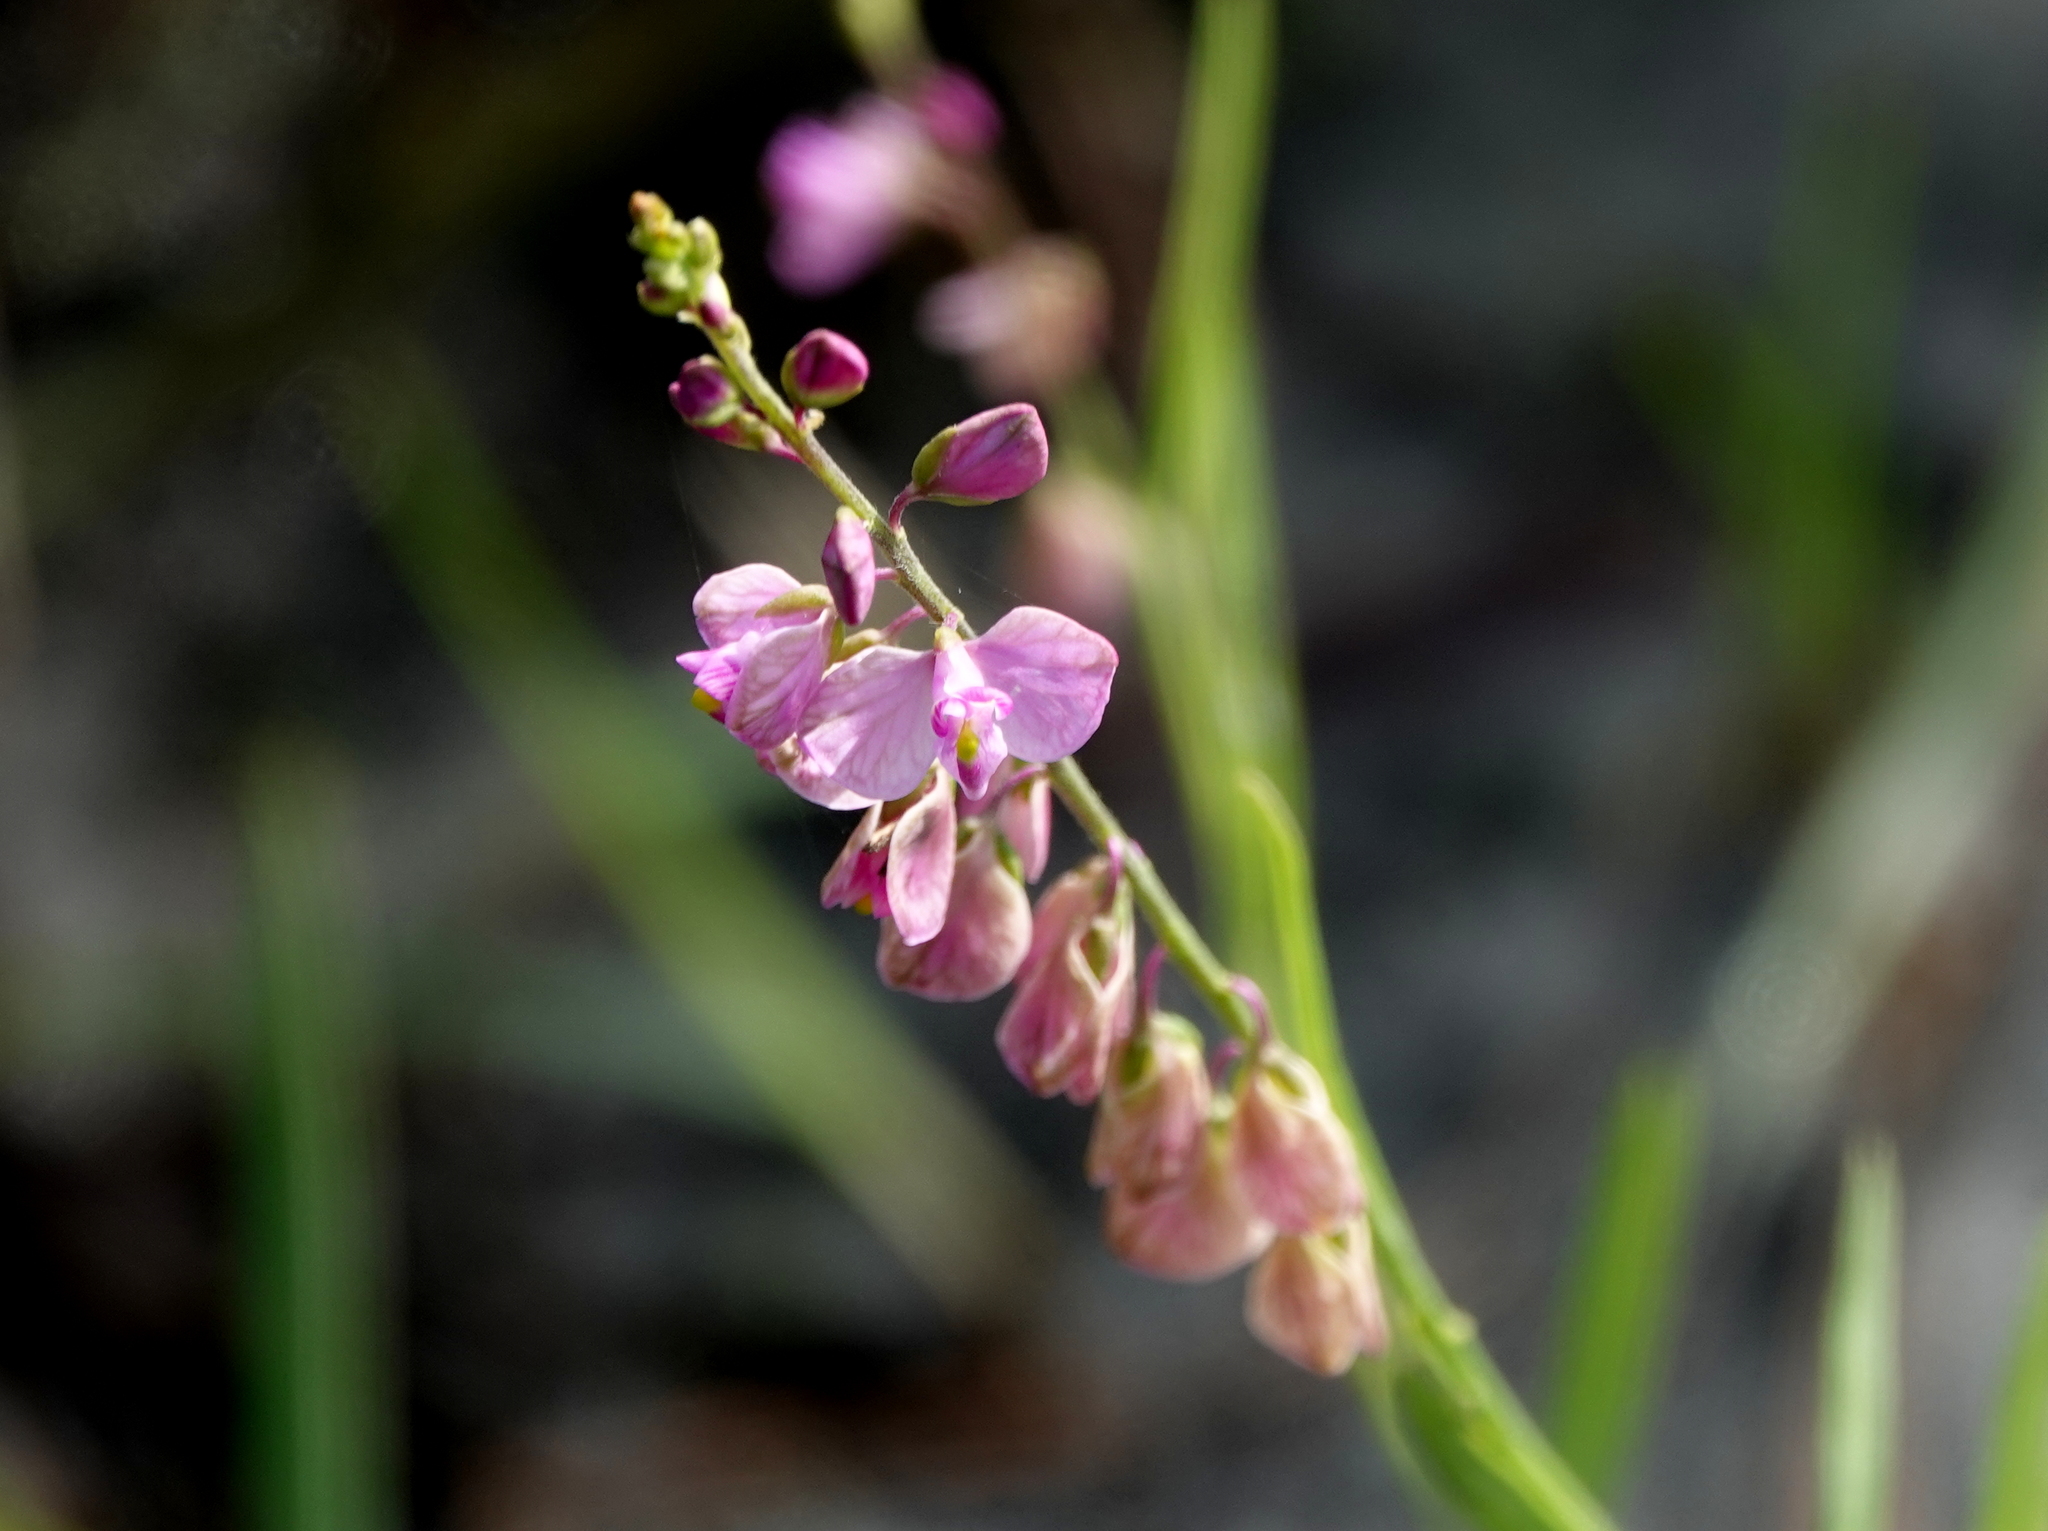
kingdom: Plantae
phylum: Tracheophyta
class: Magnoliopsida
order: Fabales
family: Polygalaceae
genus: Asemeia
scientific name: Asemeia grandiflora
